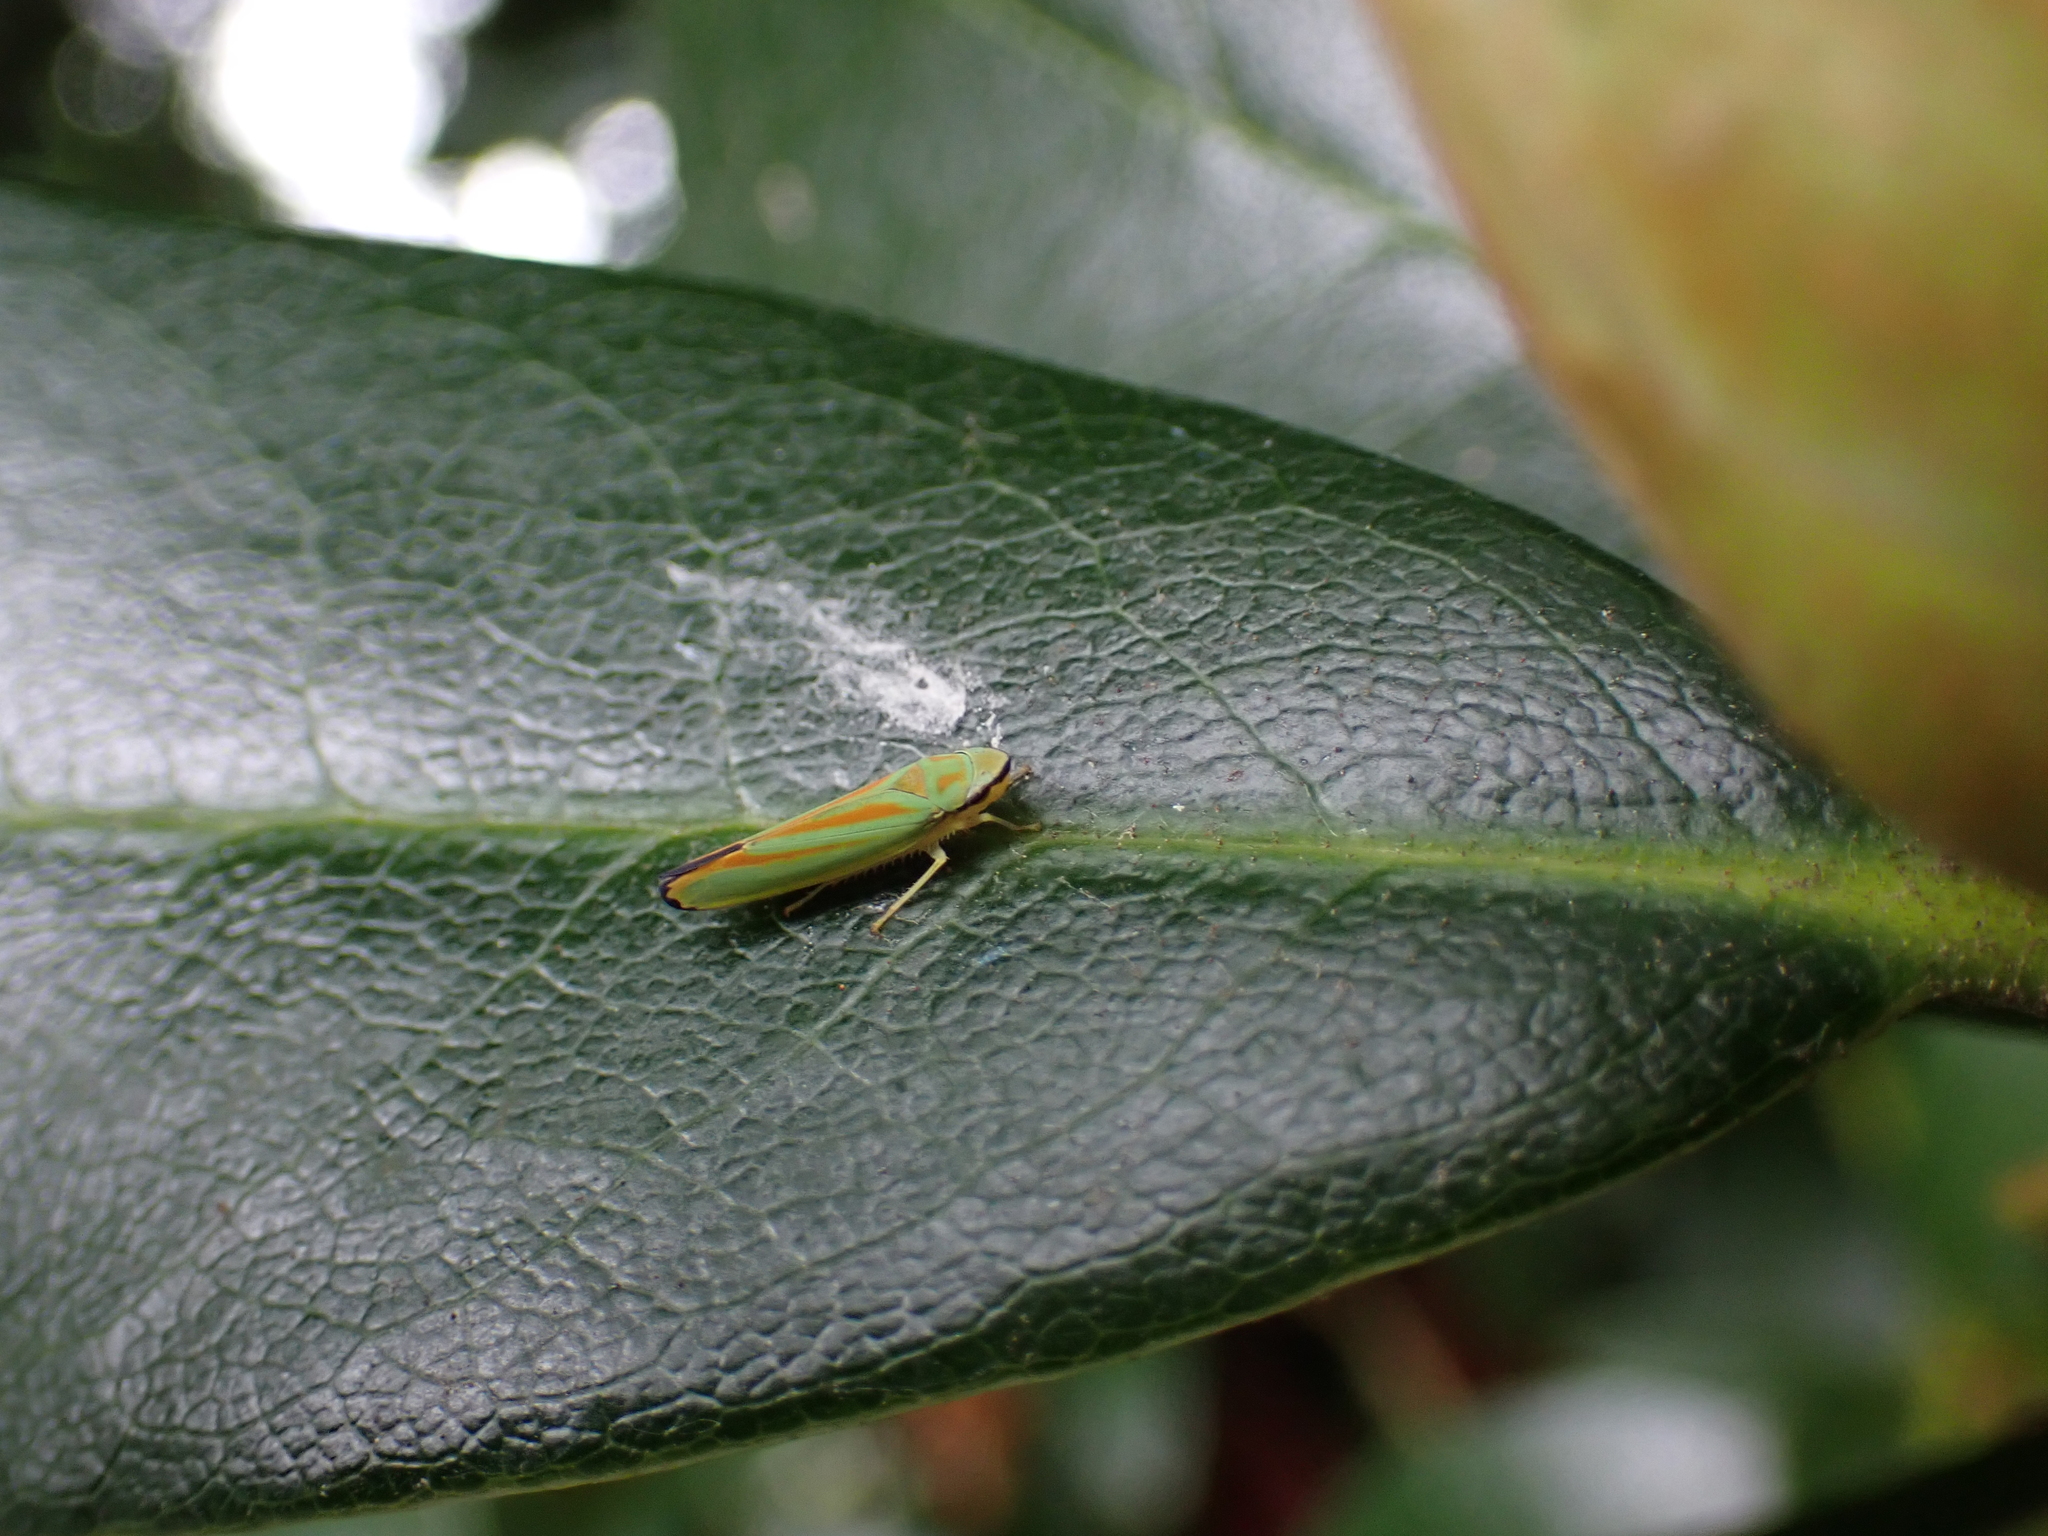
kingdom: Animalia
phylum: Arthropoda
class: Insecta
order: Hemiptera
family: Cicadellidae
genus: Graphocephala
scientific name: Graphocephala fennahi
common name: Rhododendron leafhopper
